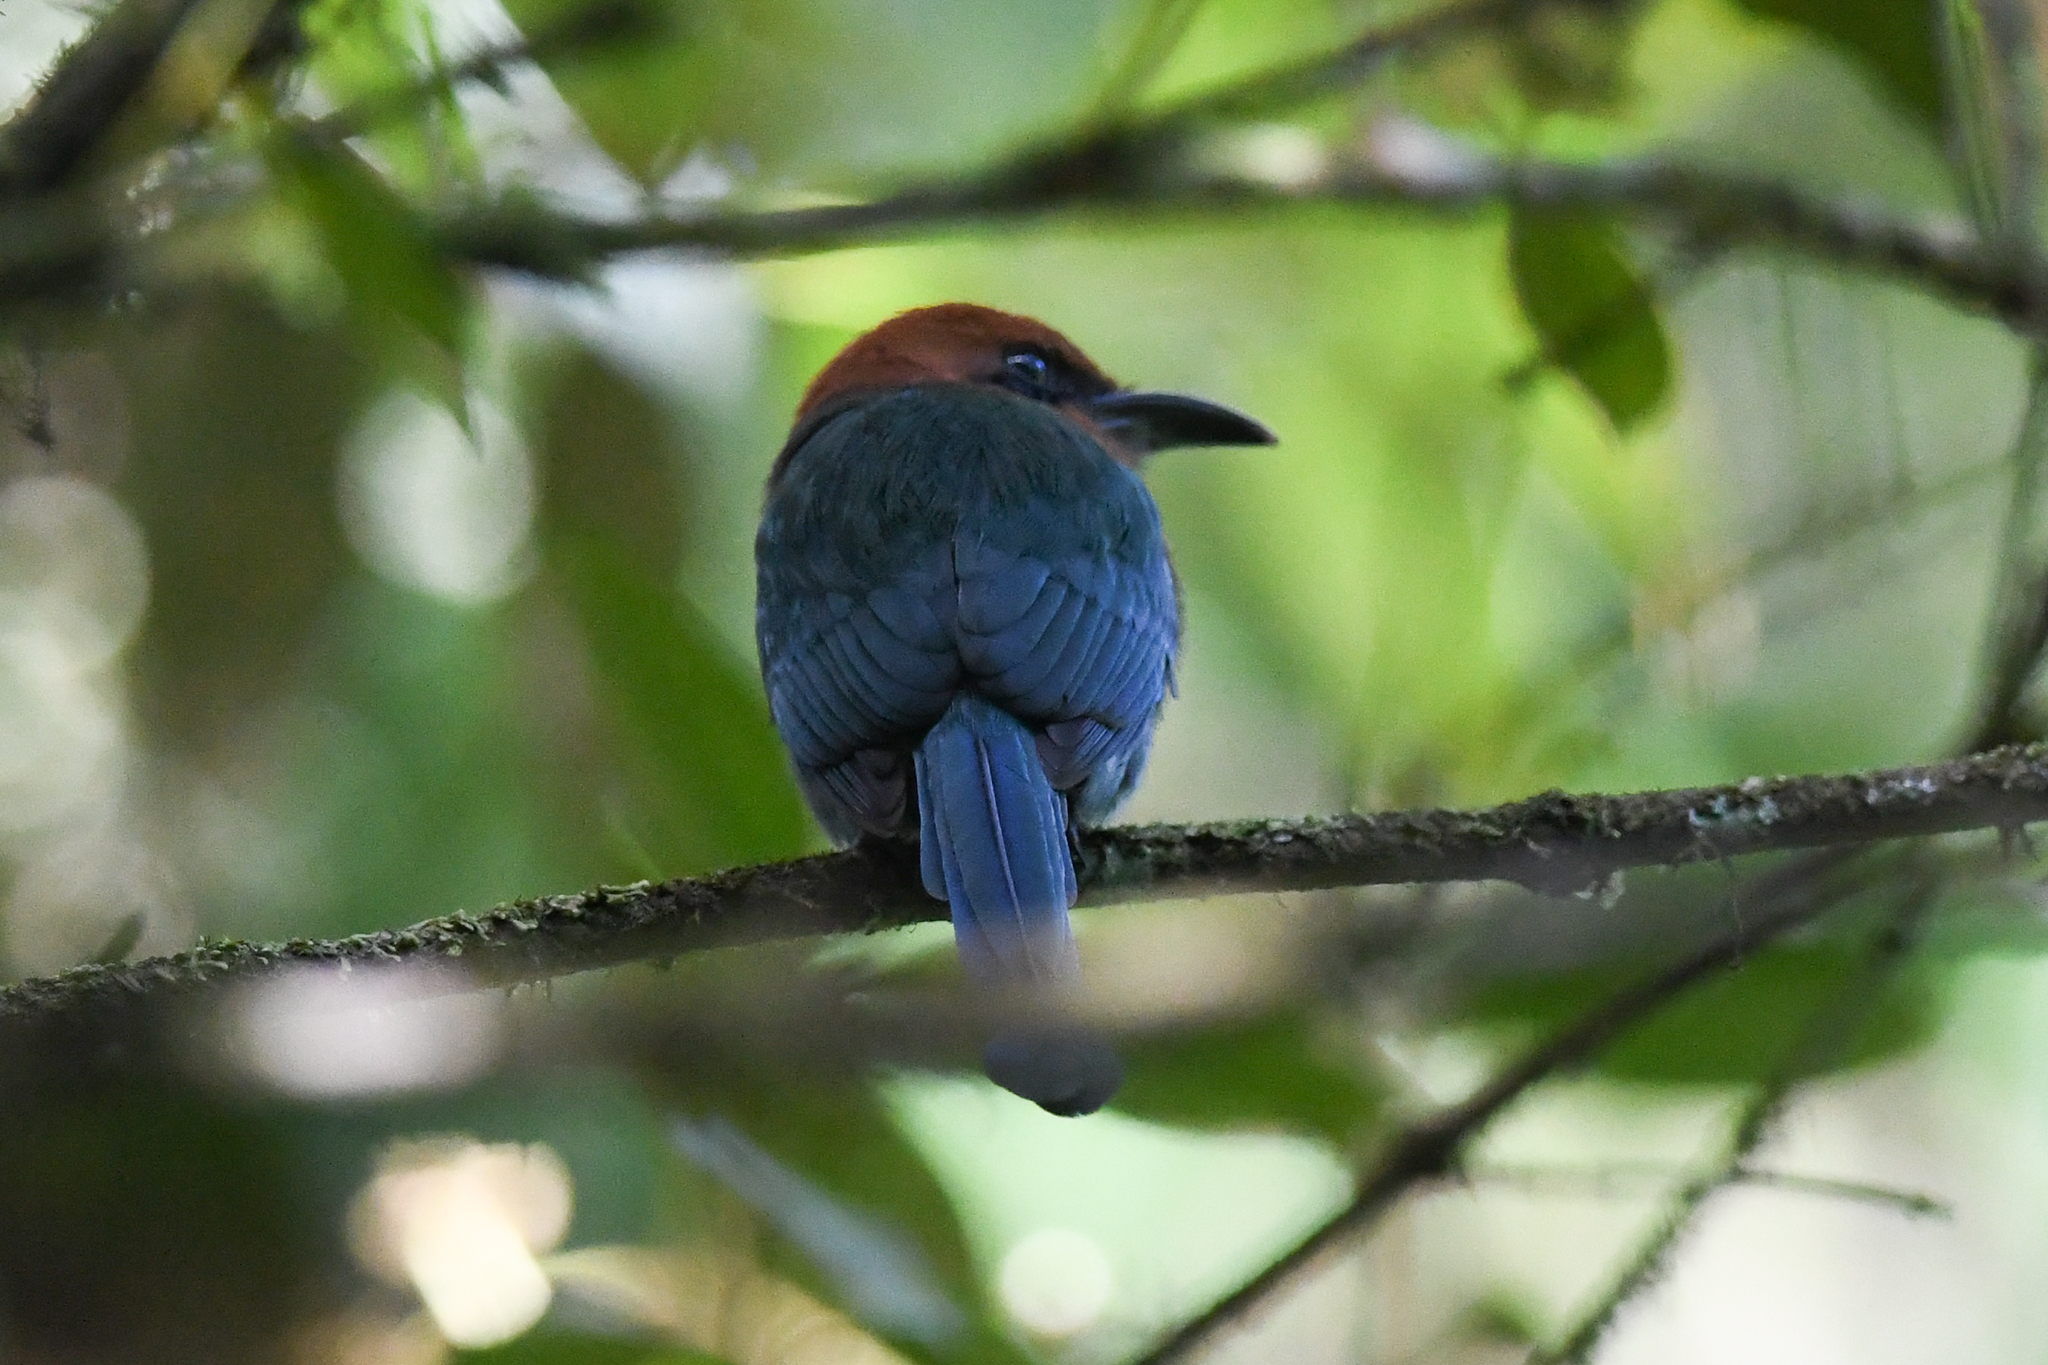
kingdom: Animalia
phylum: Chordata
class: Aves
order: Coraciiformes
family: Momotidae
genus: Electron
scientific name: Electron platyrhynchum
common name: Broad-billed motmot
